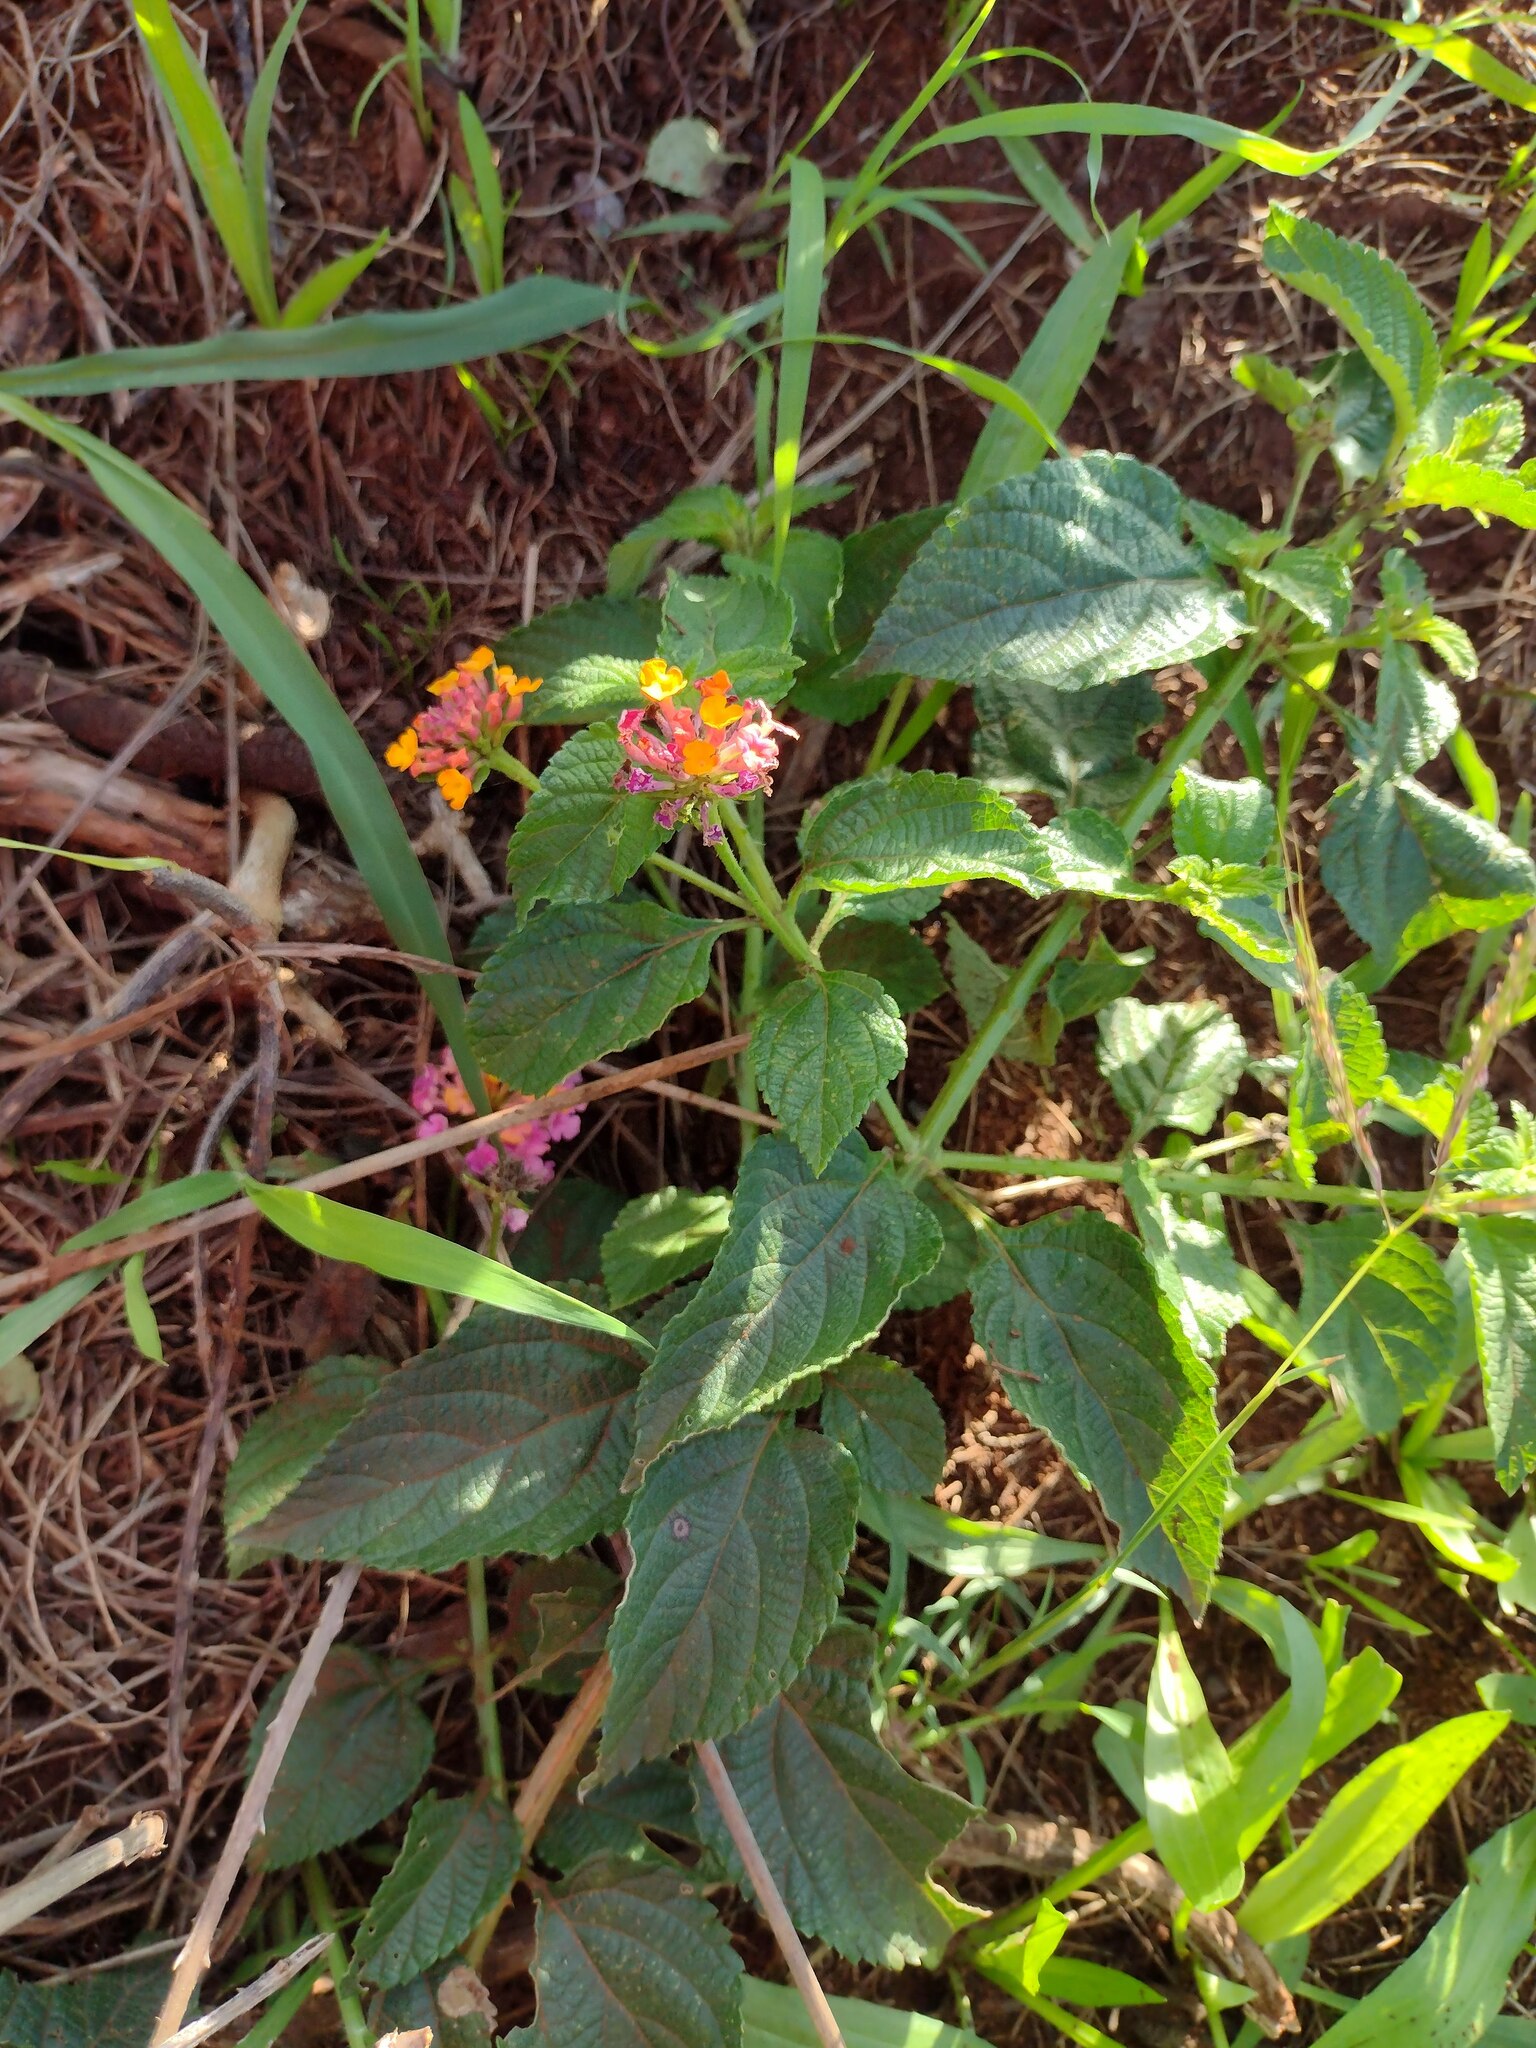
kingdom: Plantae
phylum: Tracheophyta
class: Magnoliopsida
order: Lamiales
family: Verbenaceae
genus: Lantana
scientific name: Lantana camara
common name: Lantana
